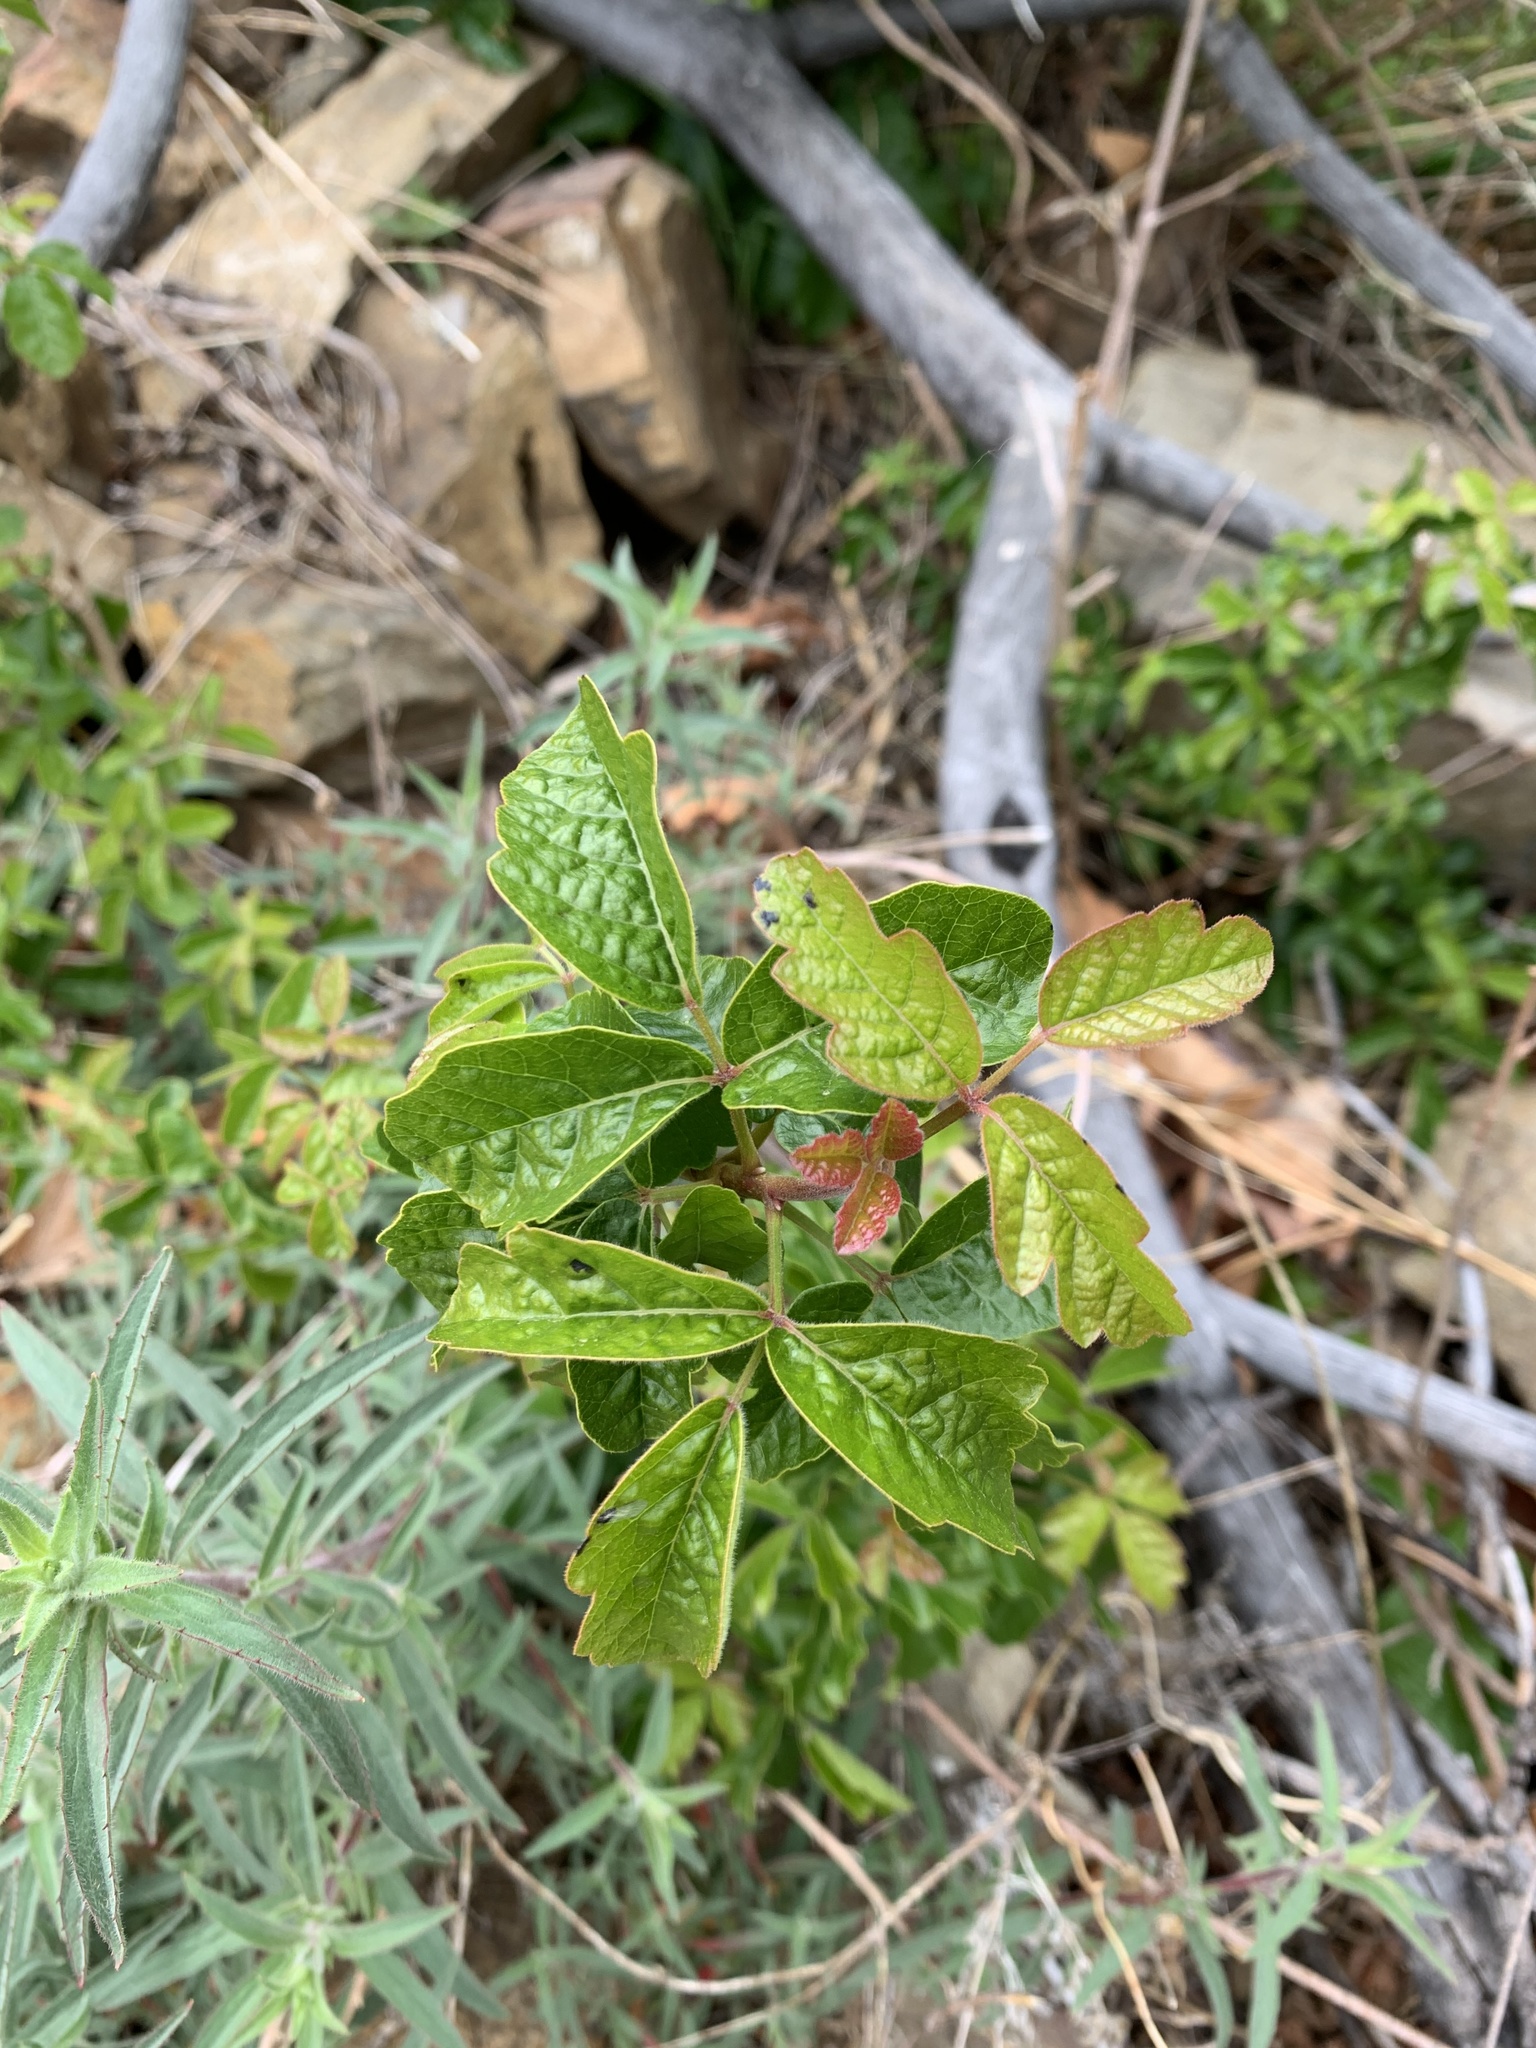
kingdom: Plantae
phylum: Tracheophyta
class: Magnoliopsida
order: Sapindales
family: Anacardiaceae
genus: Toxicodendron
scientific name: Toxicodendron diversilobum
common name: Pacific poison-oak
